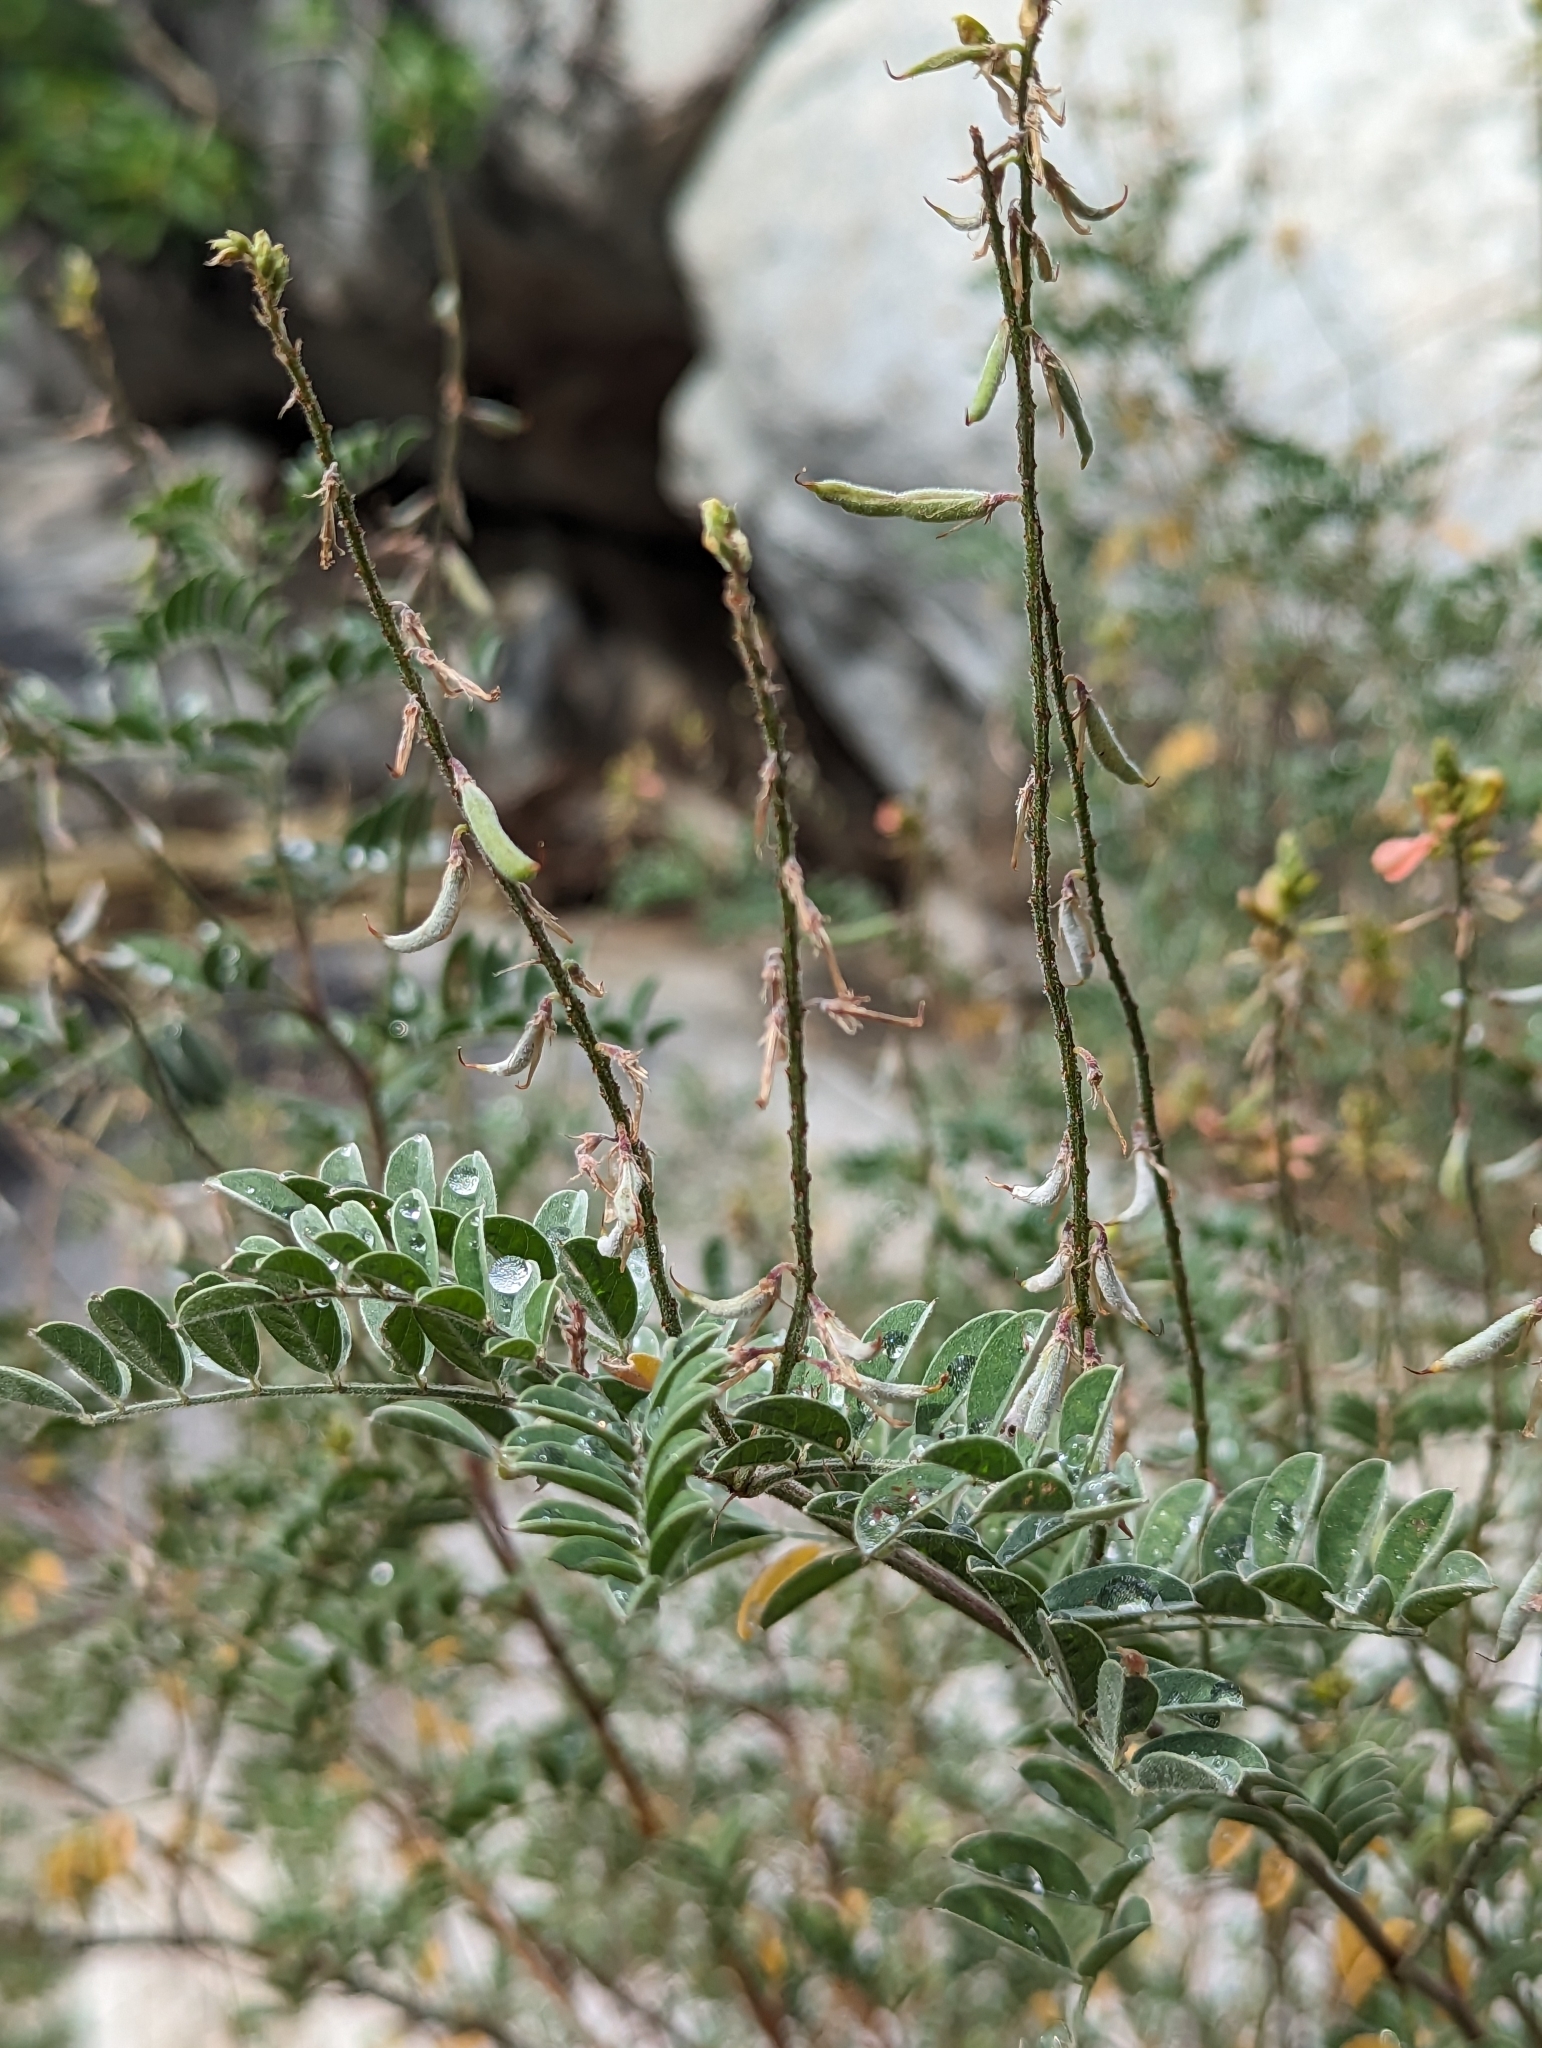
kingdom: Plantae
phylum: Tracheophyta
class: Magnoliopsida
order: Fabales
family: Fabaceae
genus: Indigofera
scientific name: Indigofera fruticosa
